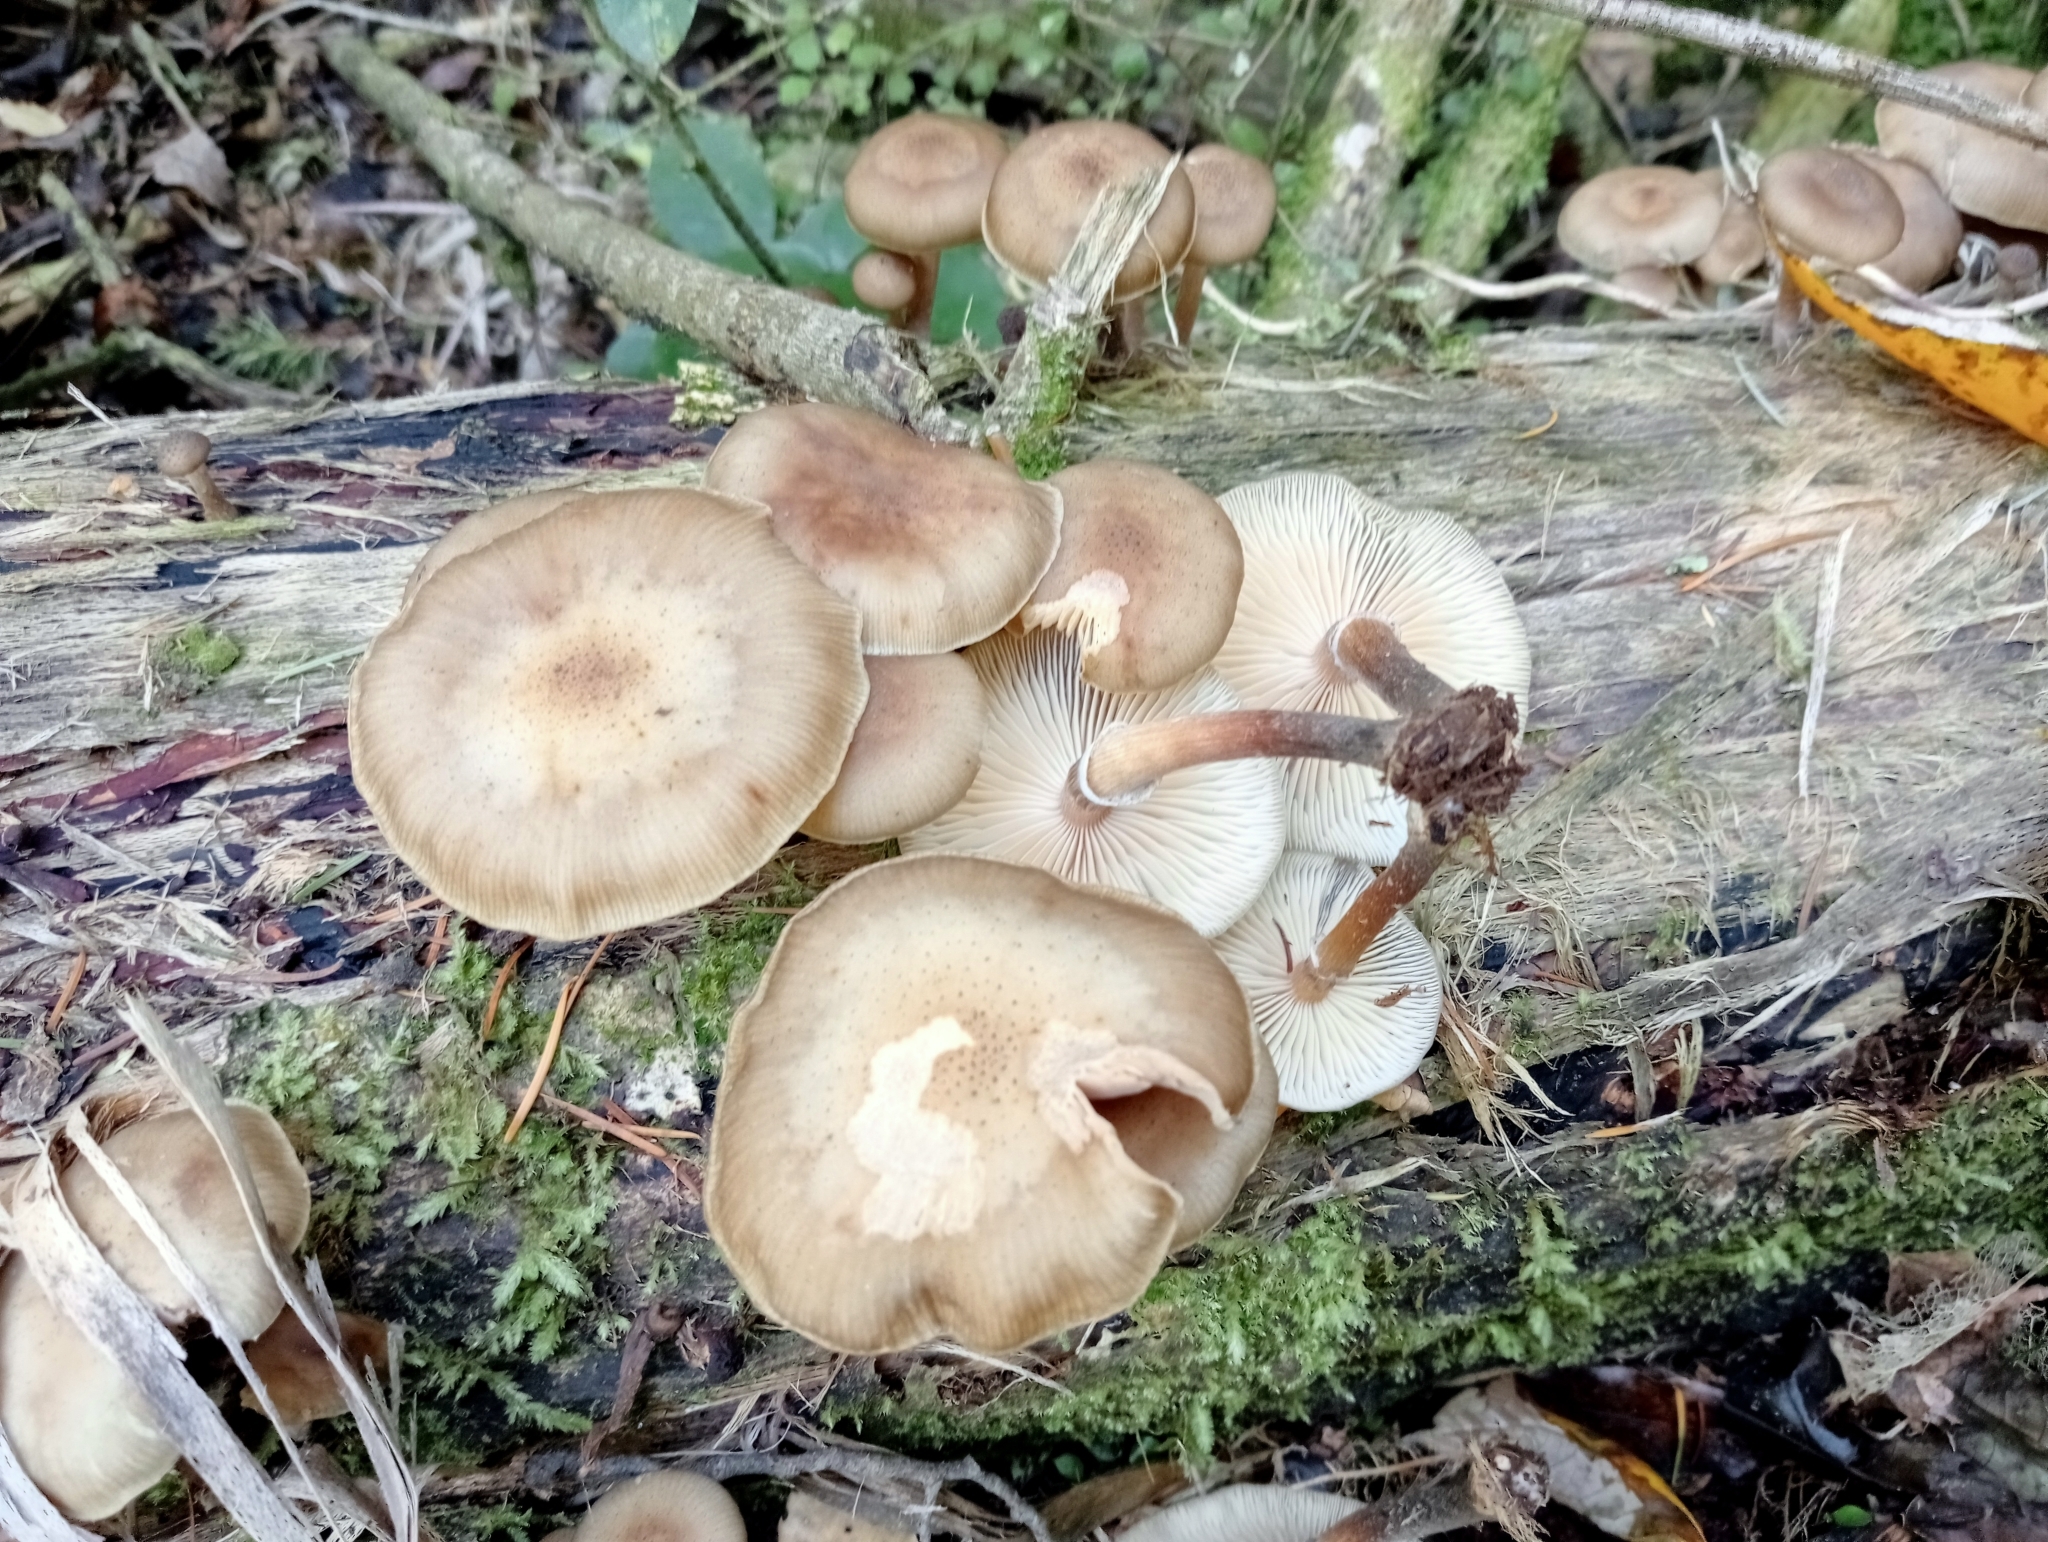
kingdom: Fungi
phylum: Basidiomycota
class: Agaricomycetes
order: Agaricales
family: Physalacriaceae
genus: Armillaria
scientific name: Armillaria novae-zelandiae
